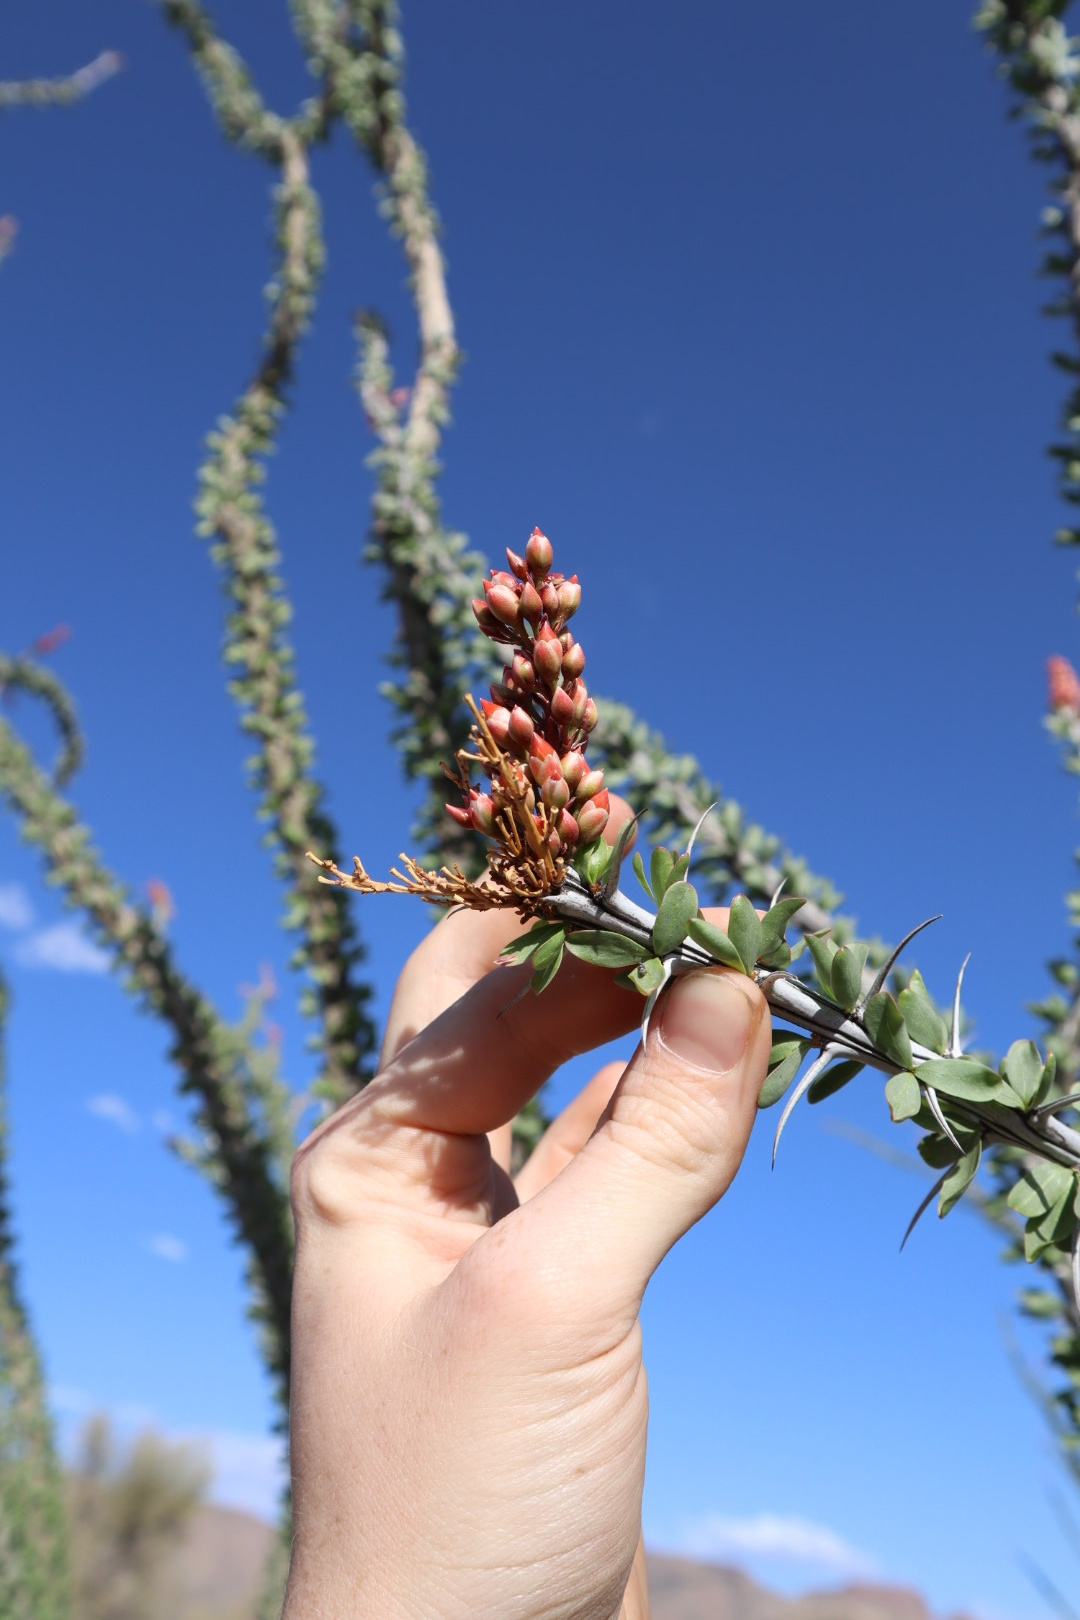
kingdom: Plantae
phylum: Tracheophyta
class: Magnoliopsida
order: Ericales
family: Fouquieriaceae
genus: Fouquieria
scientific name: Fouquieria splendens
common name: Vine-cactus
